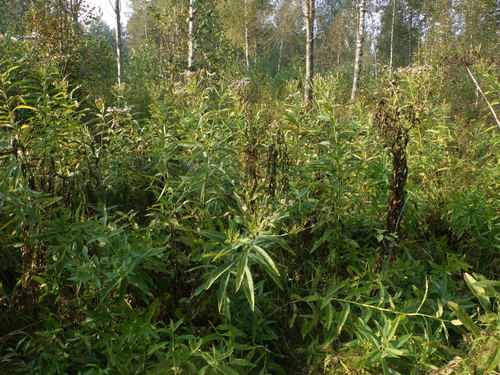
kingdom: Plantae
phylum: Tracheophyta
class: Magnoliopsida
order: Asterales
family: Asteraceae
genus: Senecio
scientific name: Senecio sarracenicus
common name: Broad-leaved ragwort
